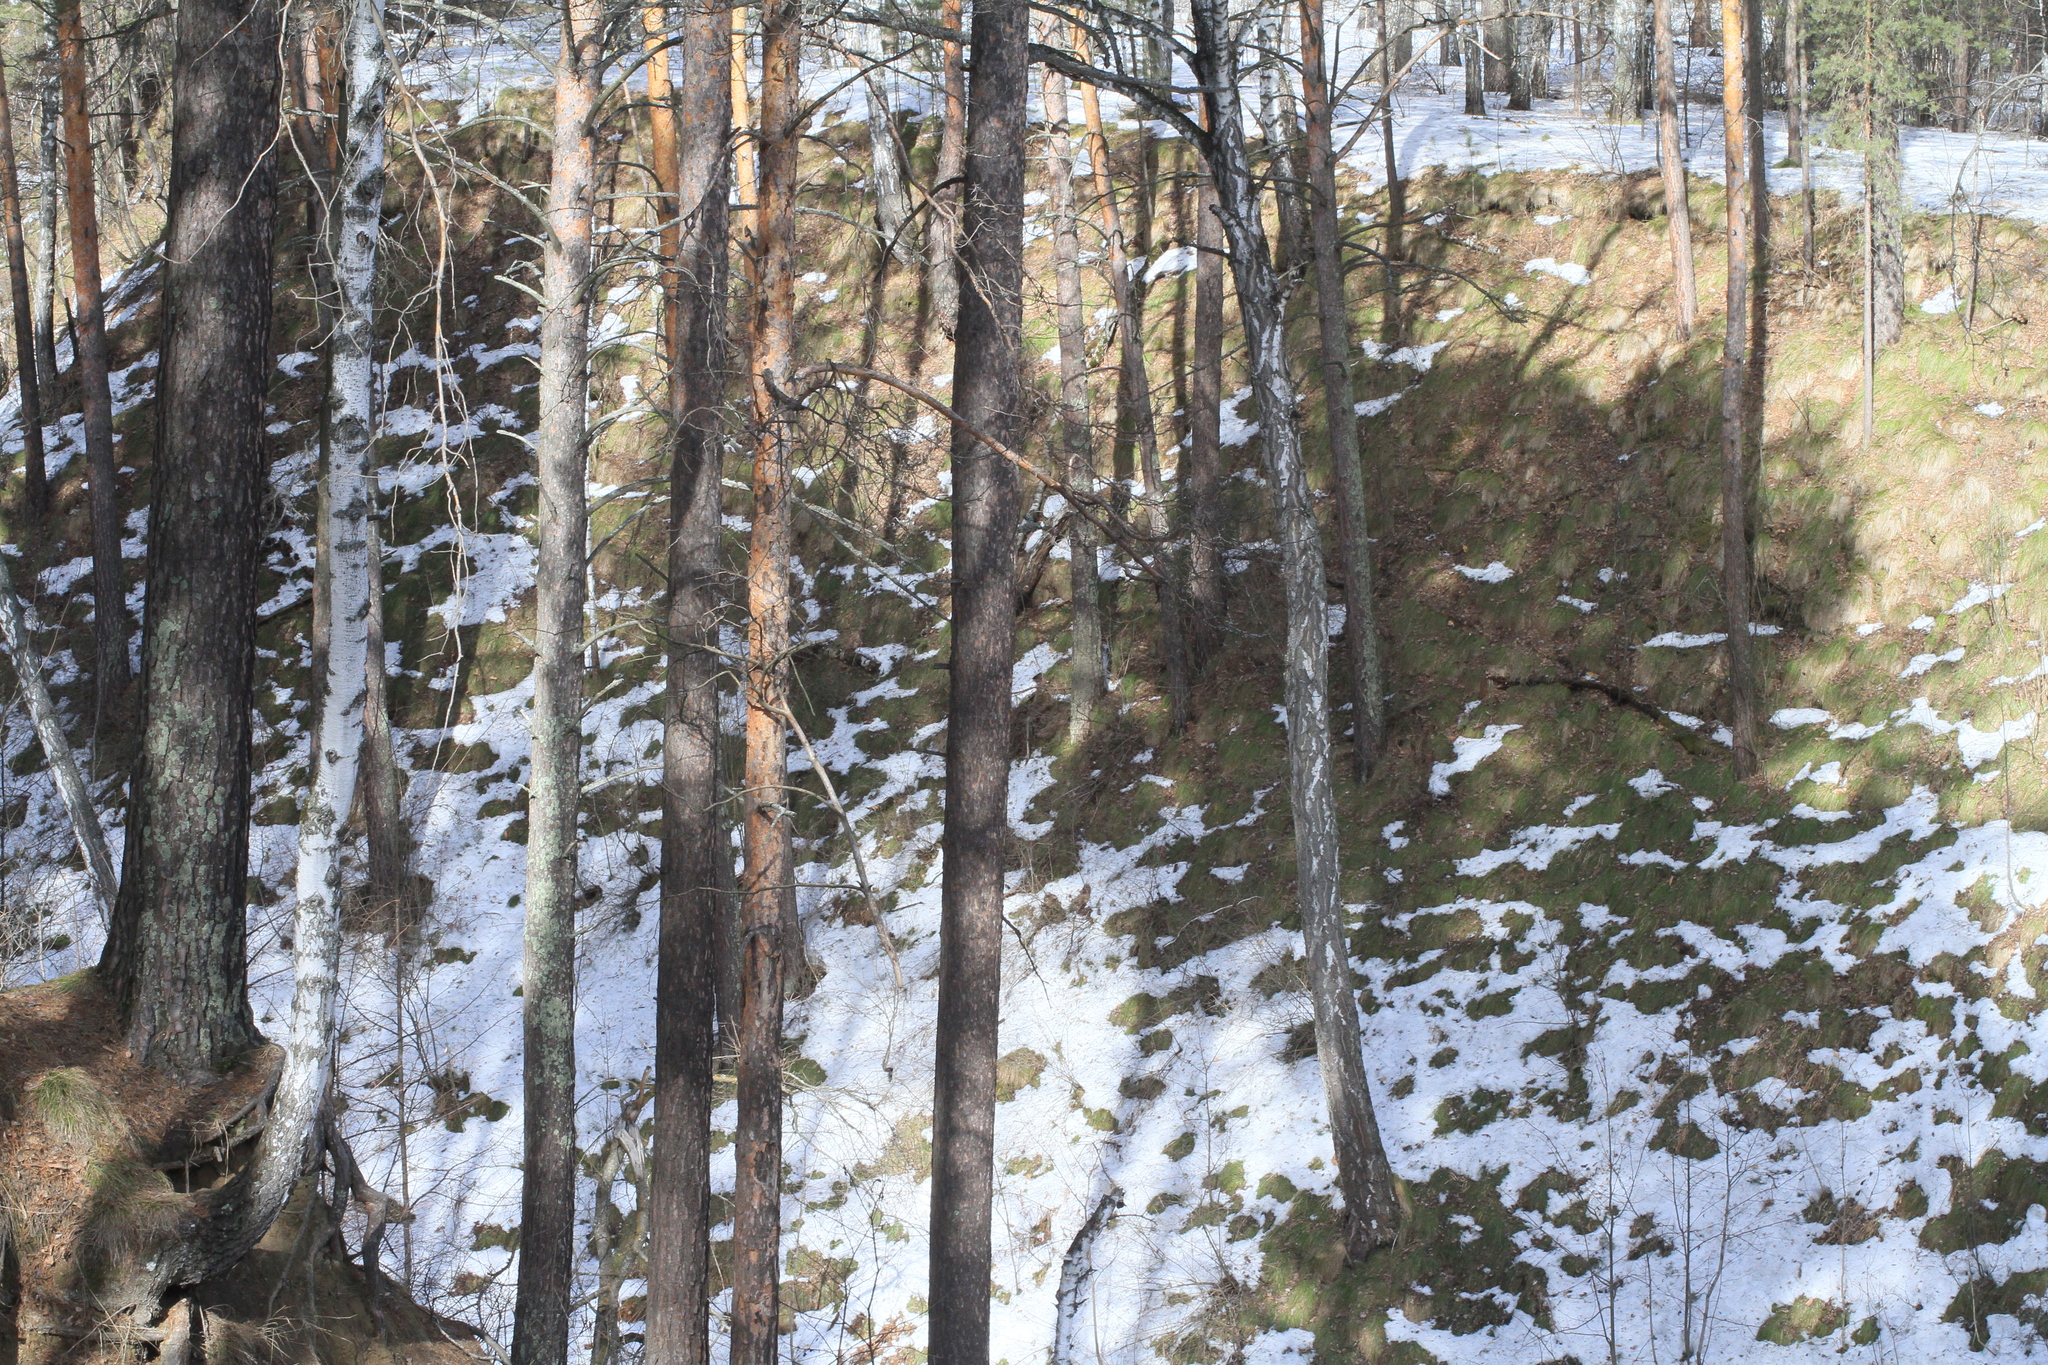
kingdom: Plantae
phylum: Tracheophyta
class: Pinopsida
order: Pinales
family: Pinaceae
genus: Pinus
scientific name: Pinus sylvestris
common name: Scots pine
